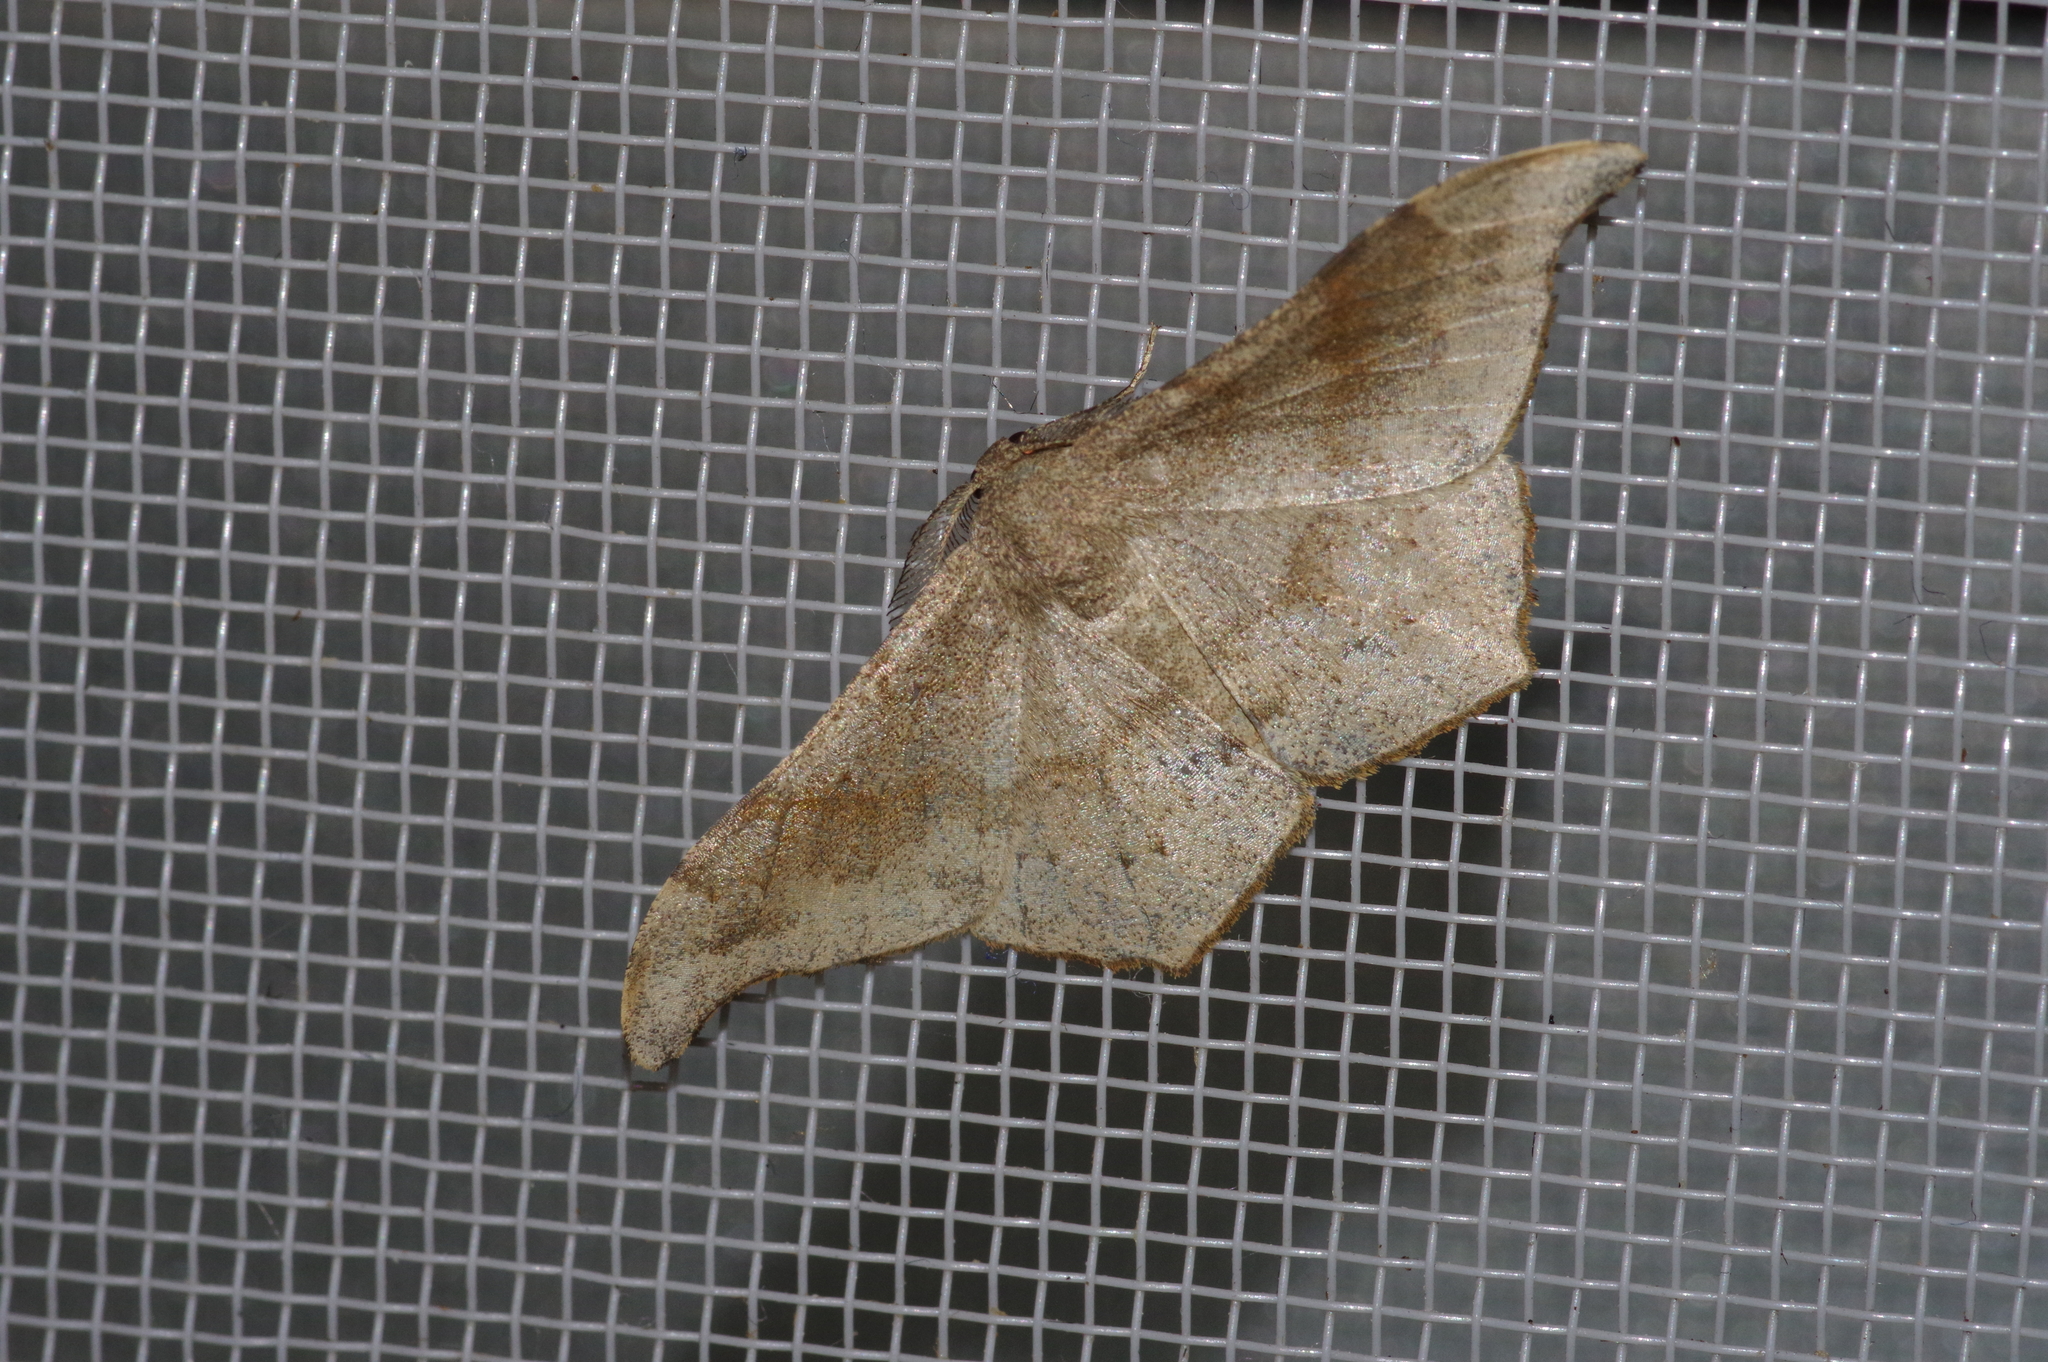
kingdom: Animalia
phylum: Arthropoda
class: Insecta
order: Lepidoptera
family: Geometridae
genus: Hyposidra
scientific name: Hyposidra talaca
